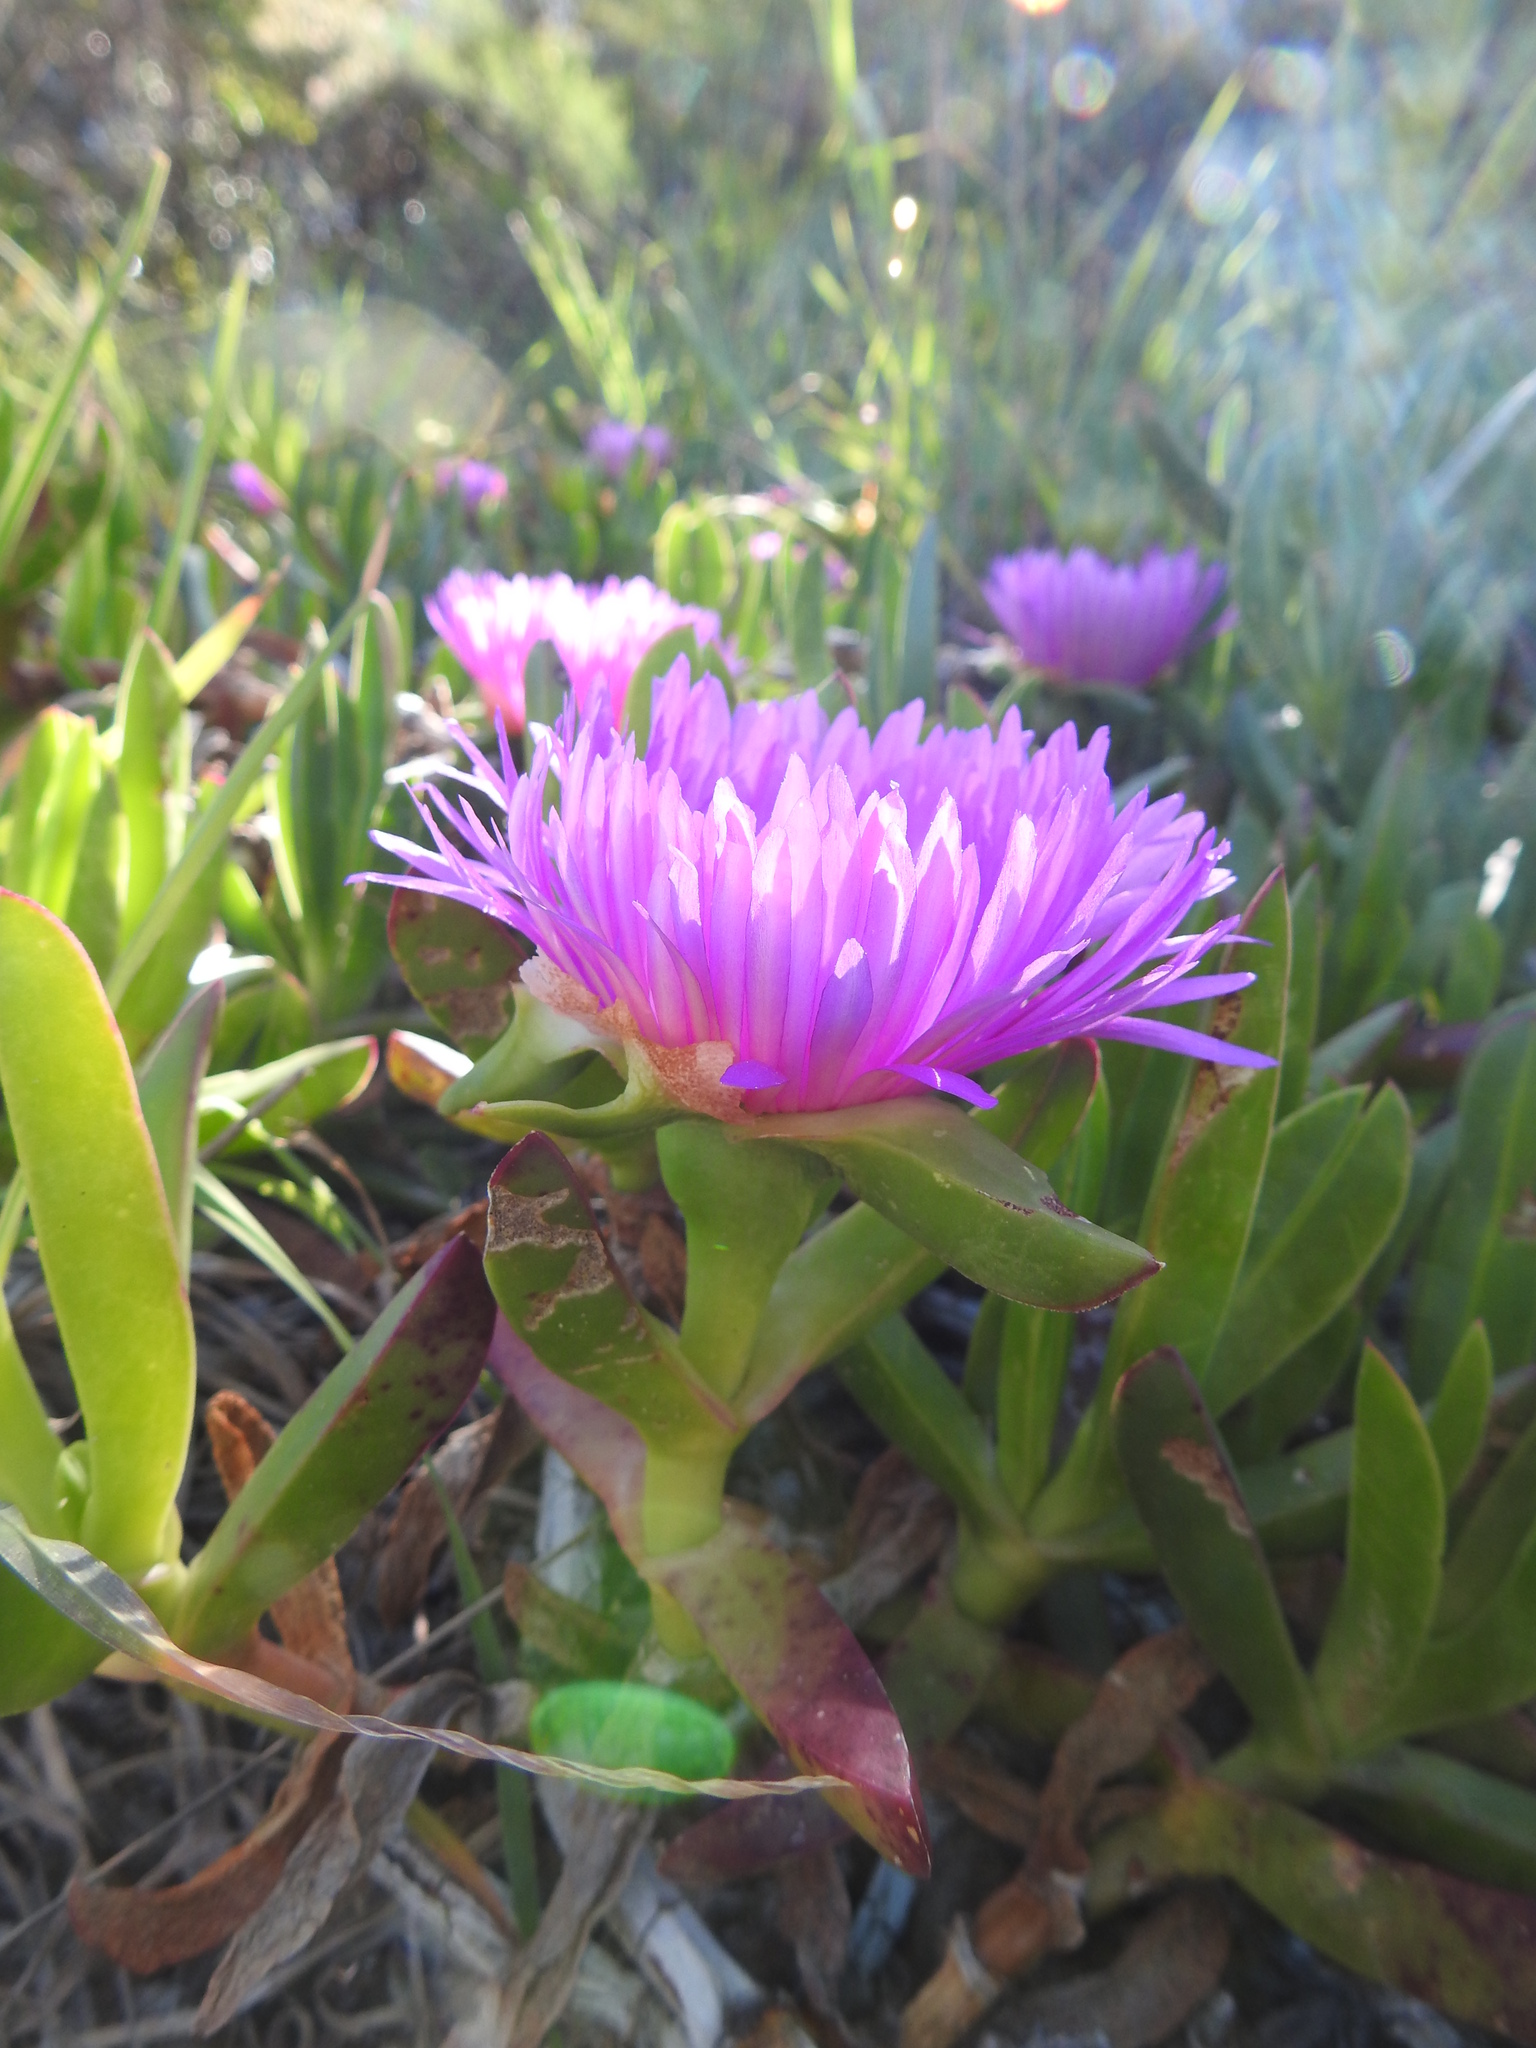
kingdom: Plantae
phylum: Tracheophyta
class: Magnoliopsida
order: Caryophyllales
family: Aizoaceae
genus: Carpobrotus
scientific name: Carpobrotus edulis
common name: Hottentot-fig
